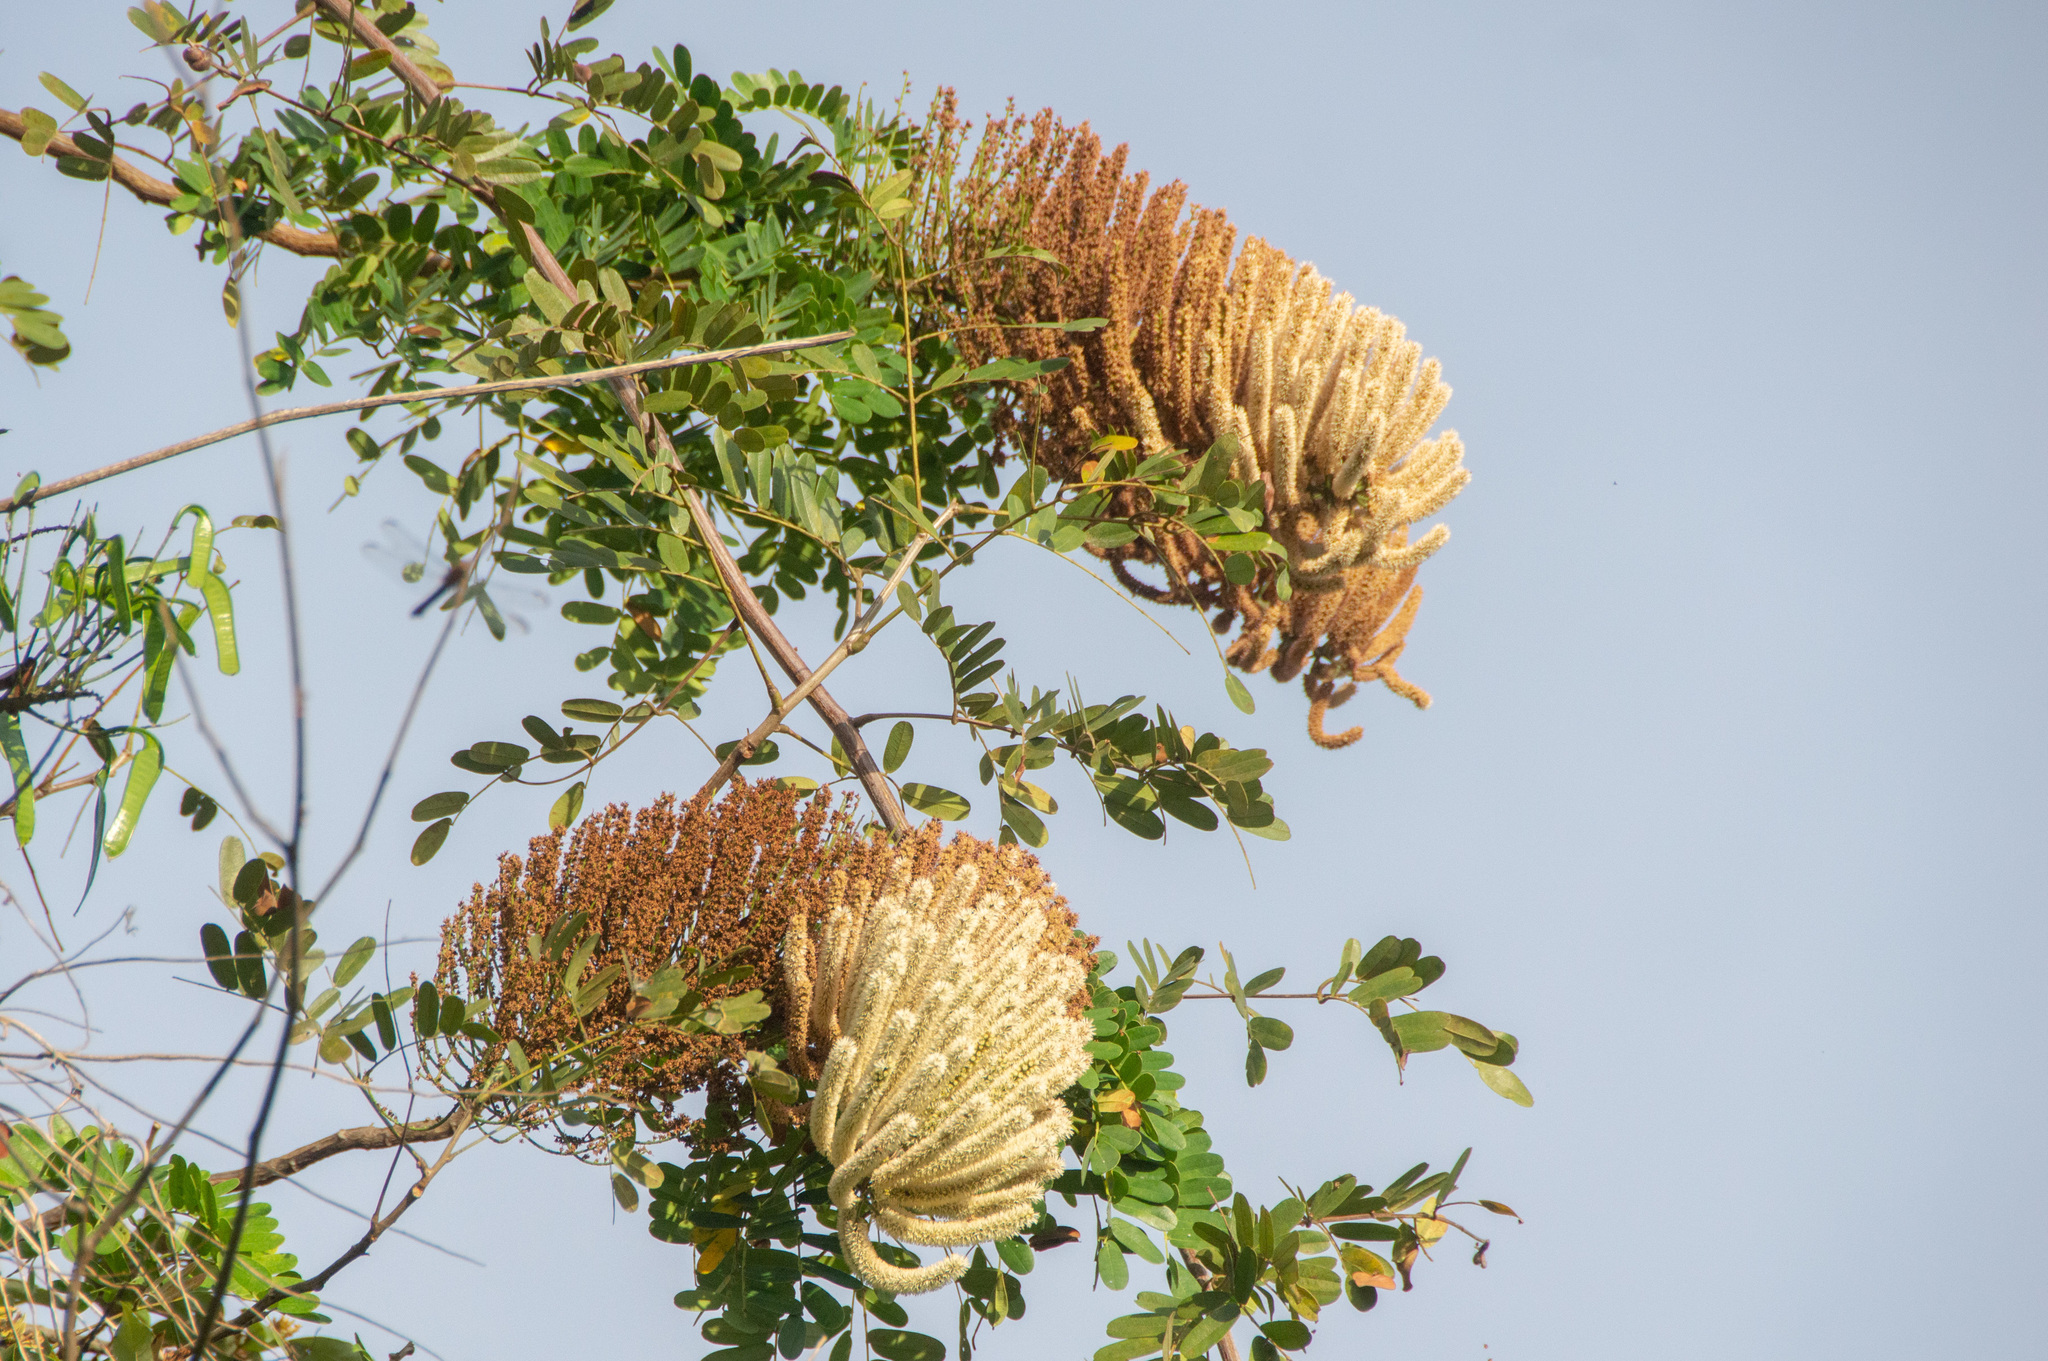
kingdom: Plantae
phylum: Tracheophyta
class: Magnoliopsida
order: Fabales
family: Fabaceae
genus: Entada
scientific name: Entada polystachya
